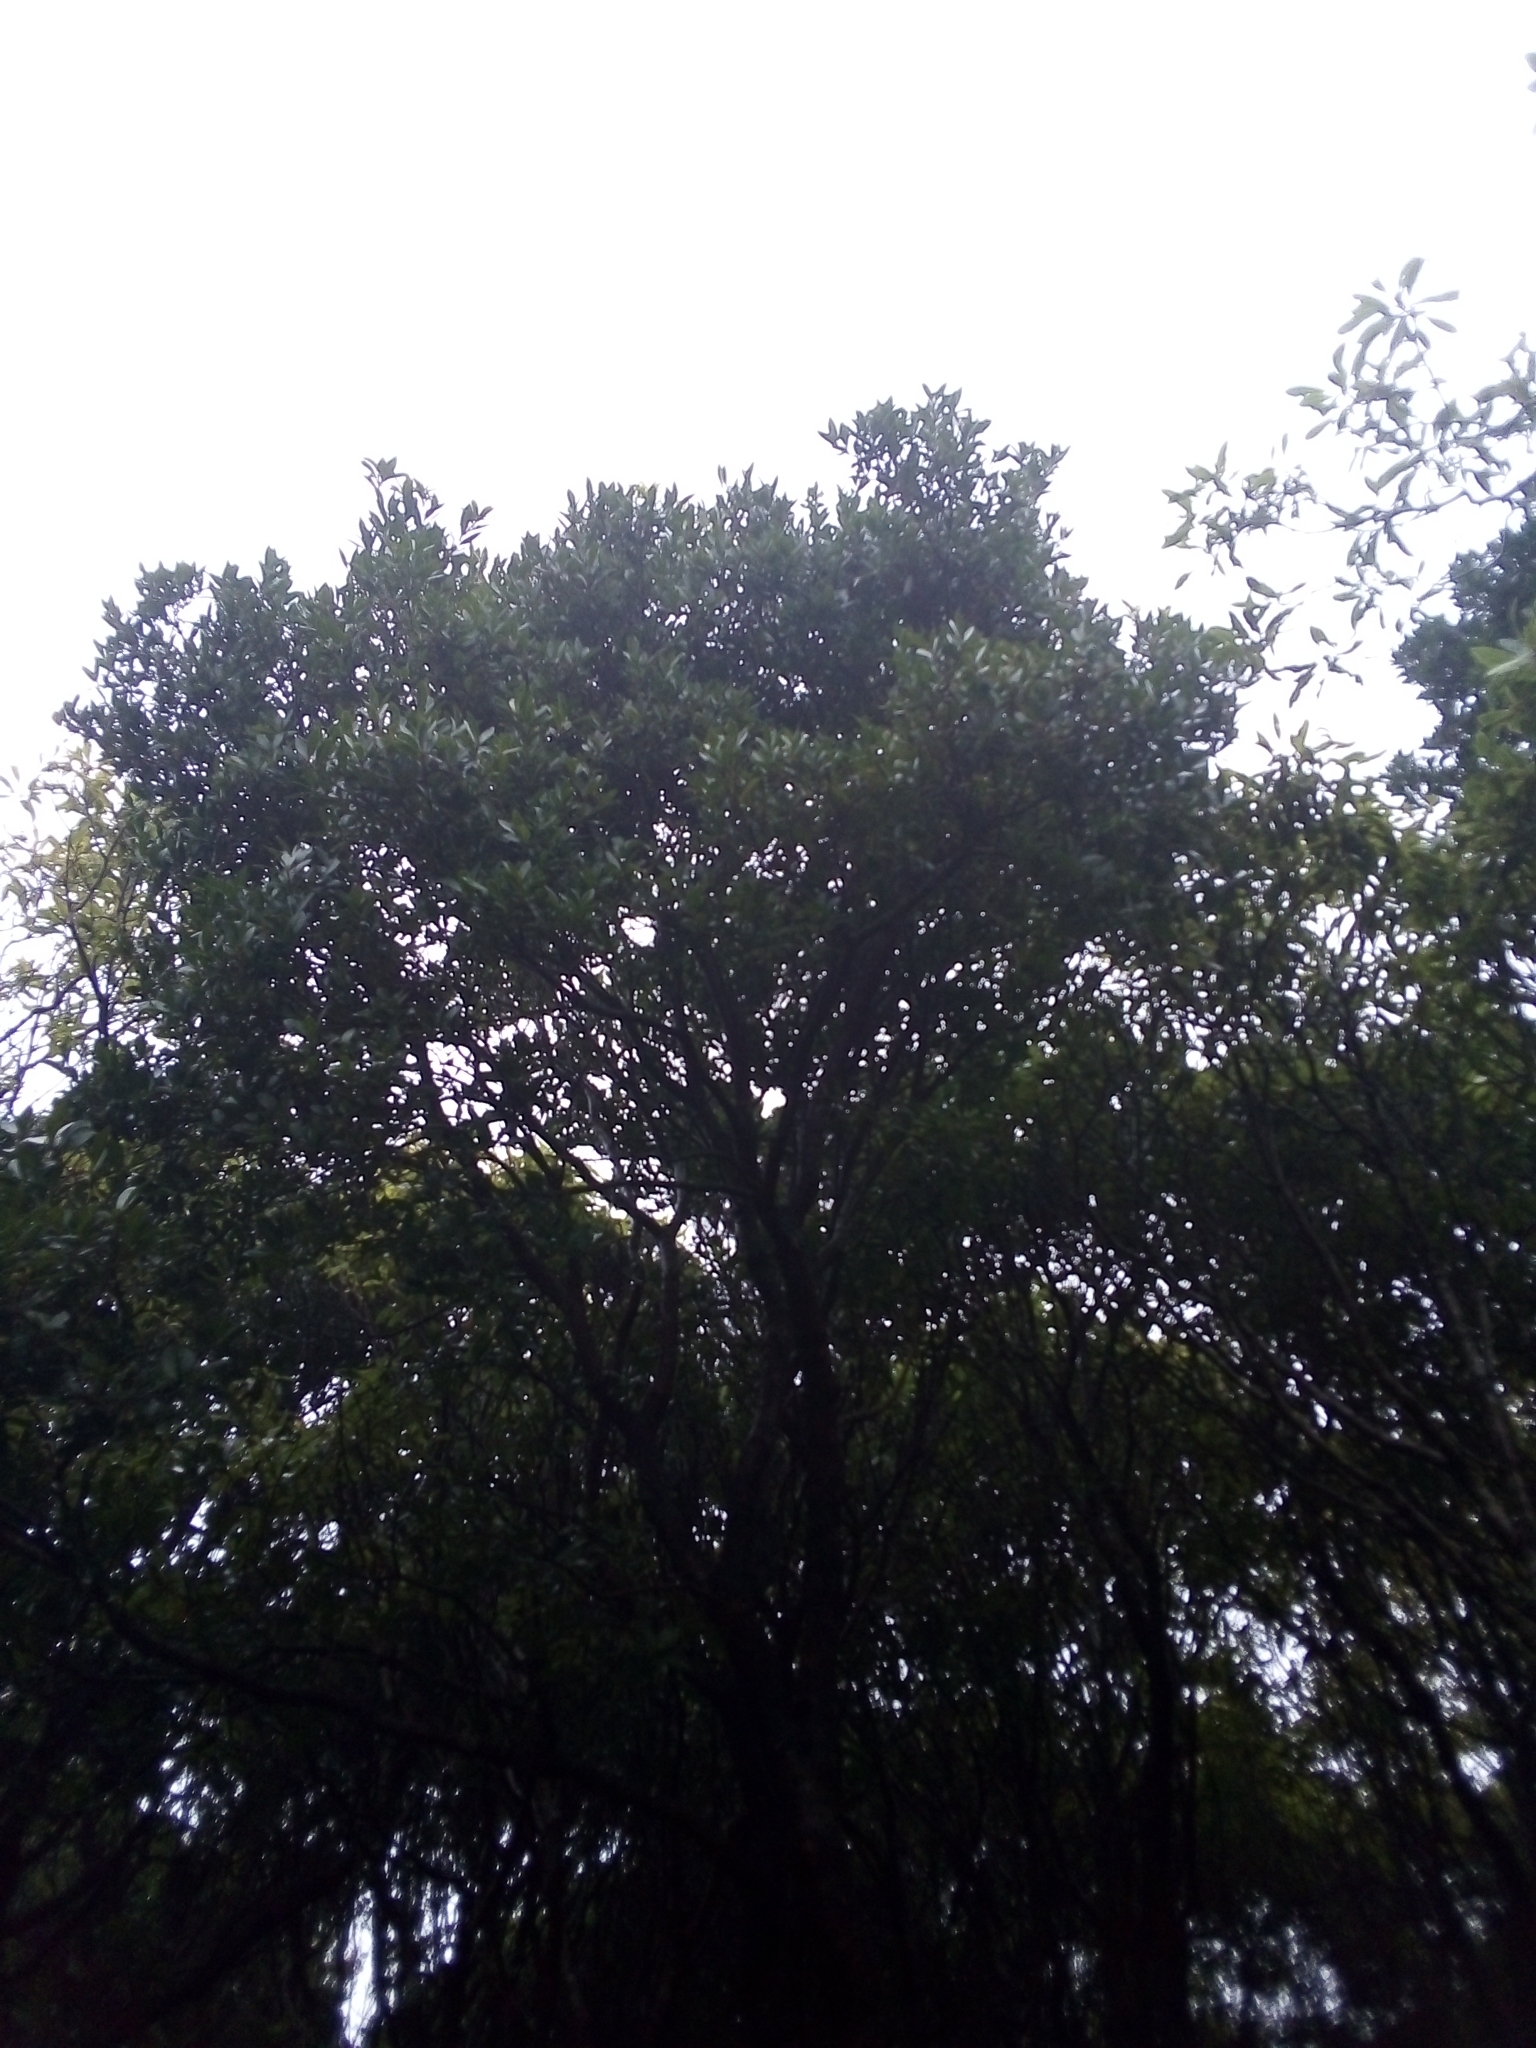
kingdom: Plantae
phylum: Tracheophyta
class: Magnoliopsida
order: Lamiales
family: Oleaceae
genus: Picconia
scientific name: Picconia azorica
